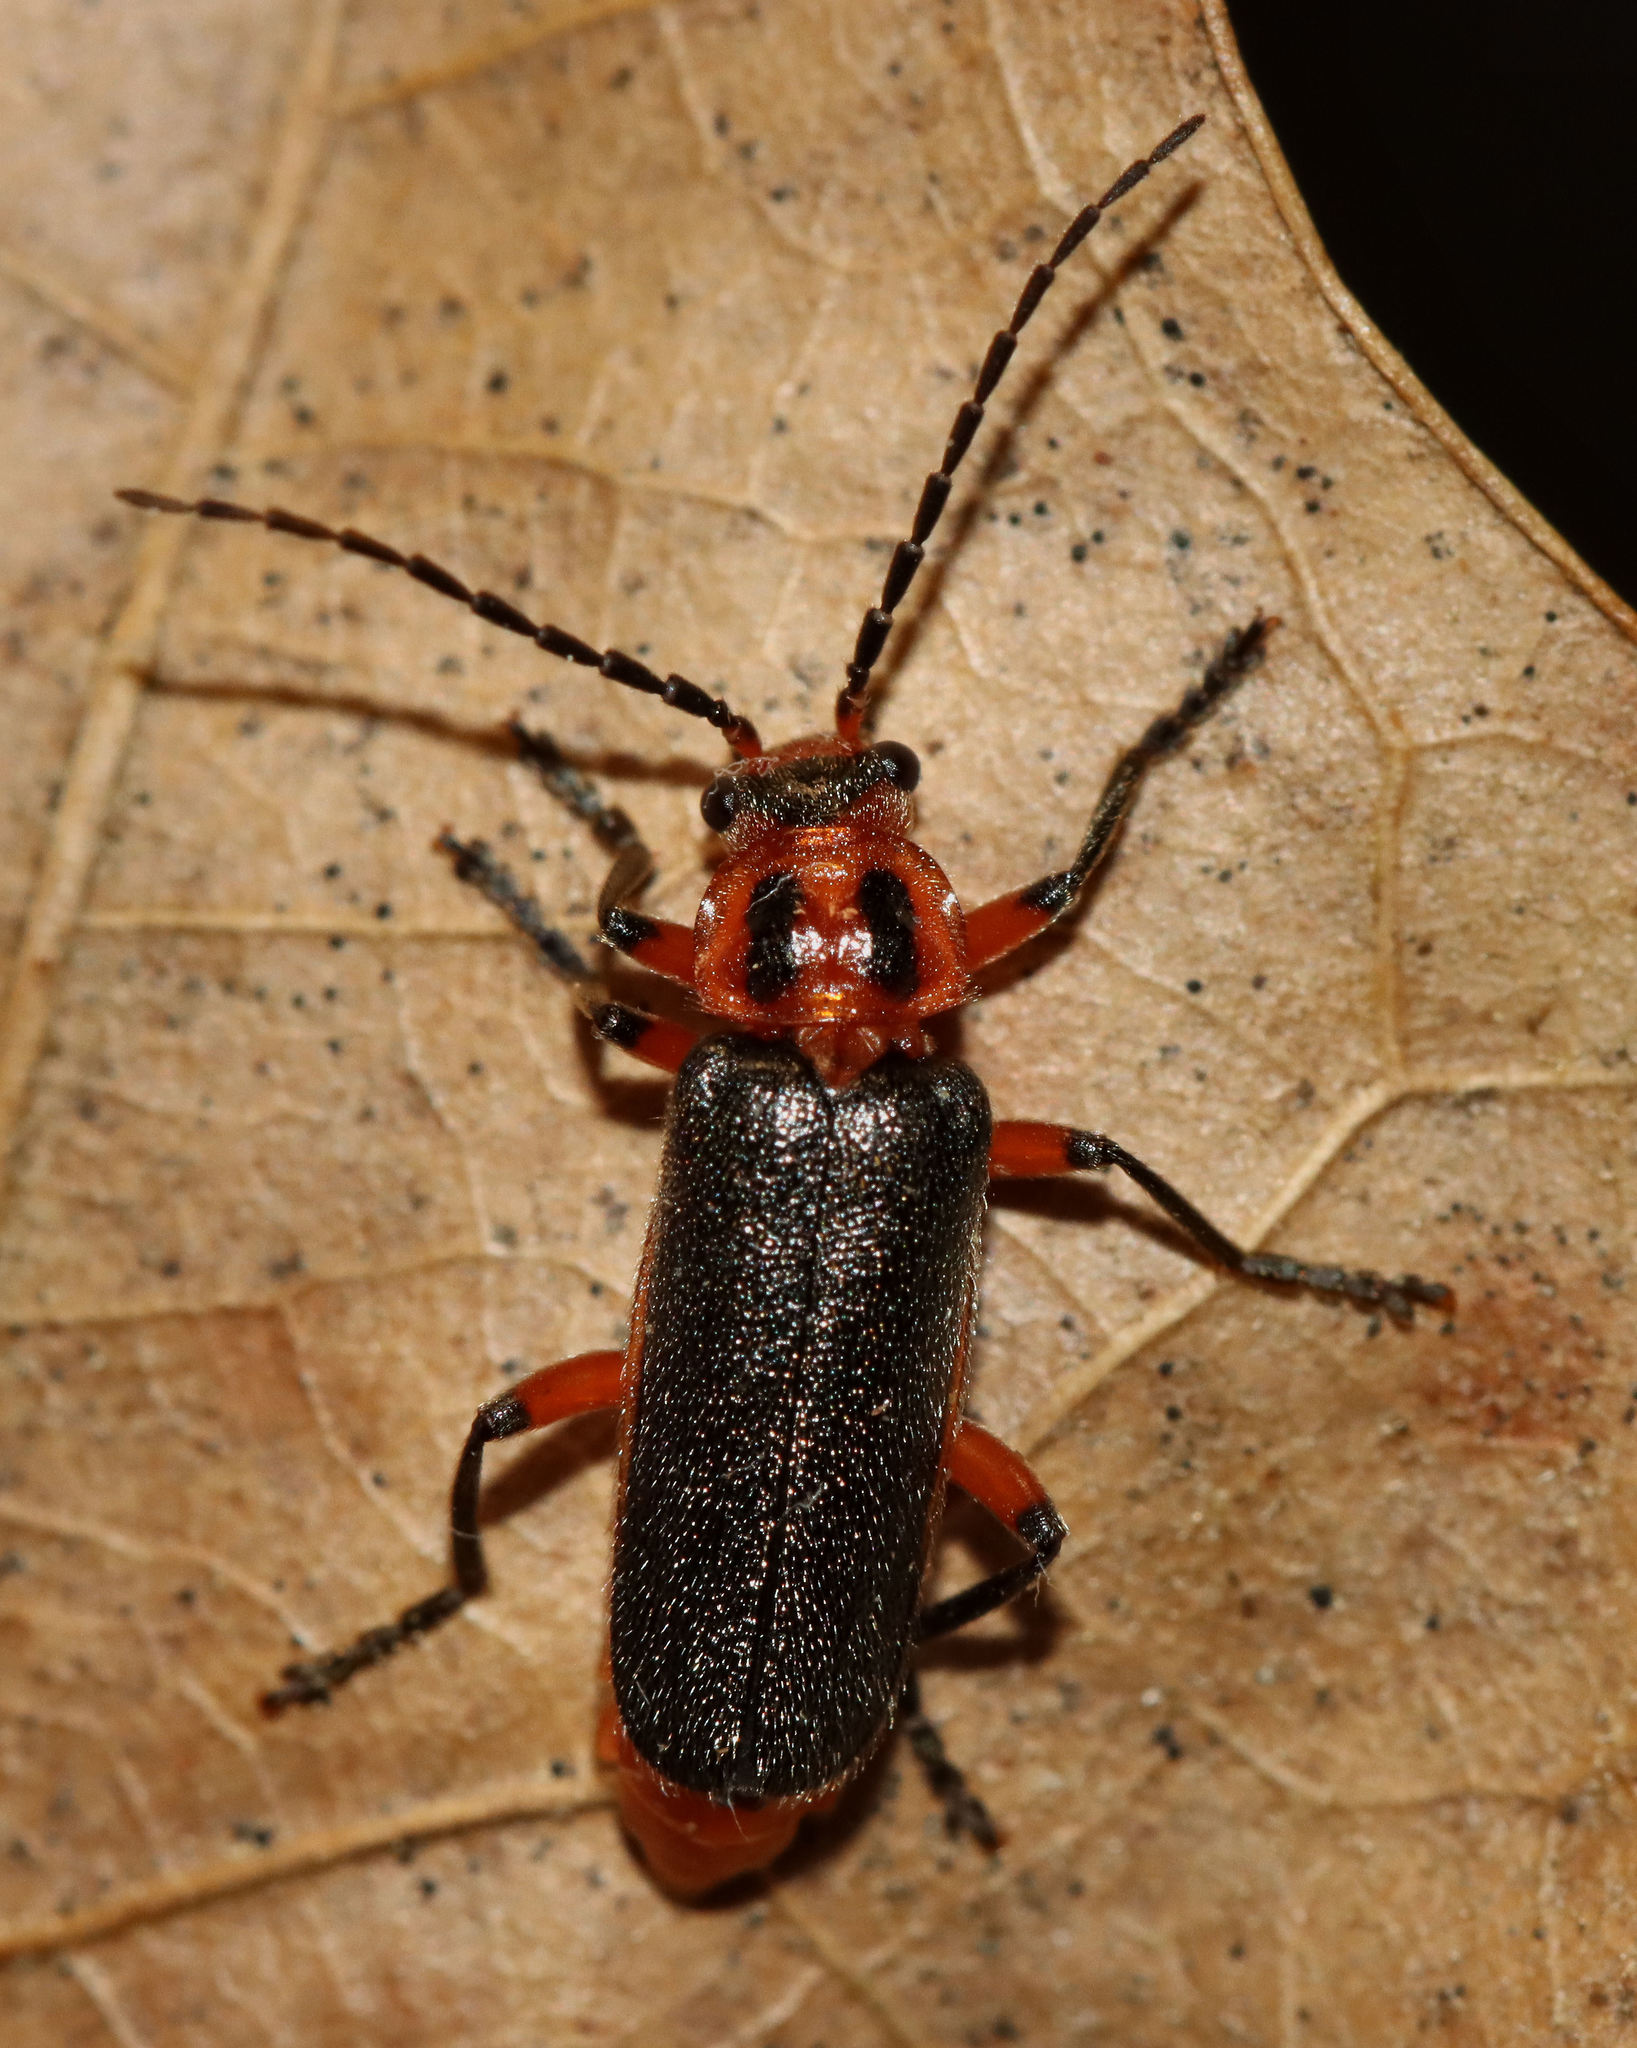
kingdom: Animalia
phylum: Arthropoda
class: Insecta
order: Coleoptera
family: Cantharidae
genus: Atalantycha
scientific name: Atalantycha bilineata
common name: Two-lined leatherwing
